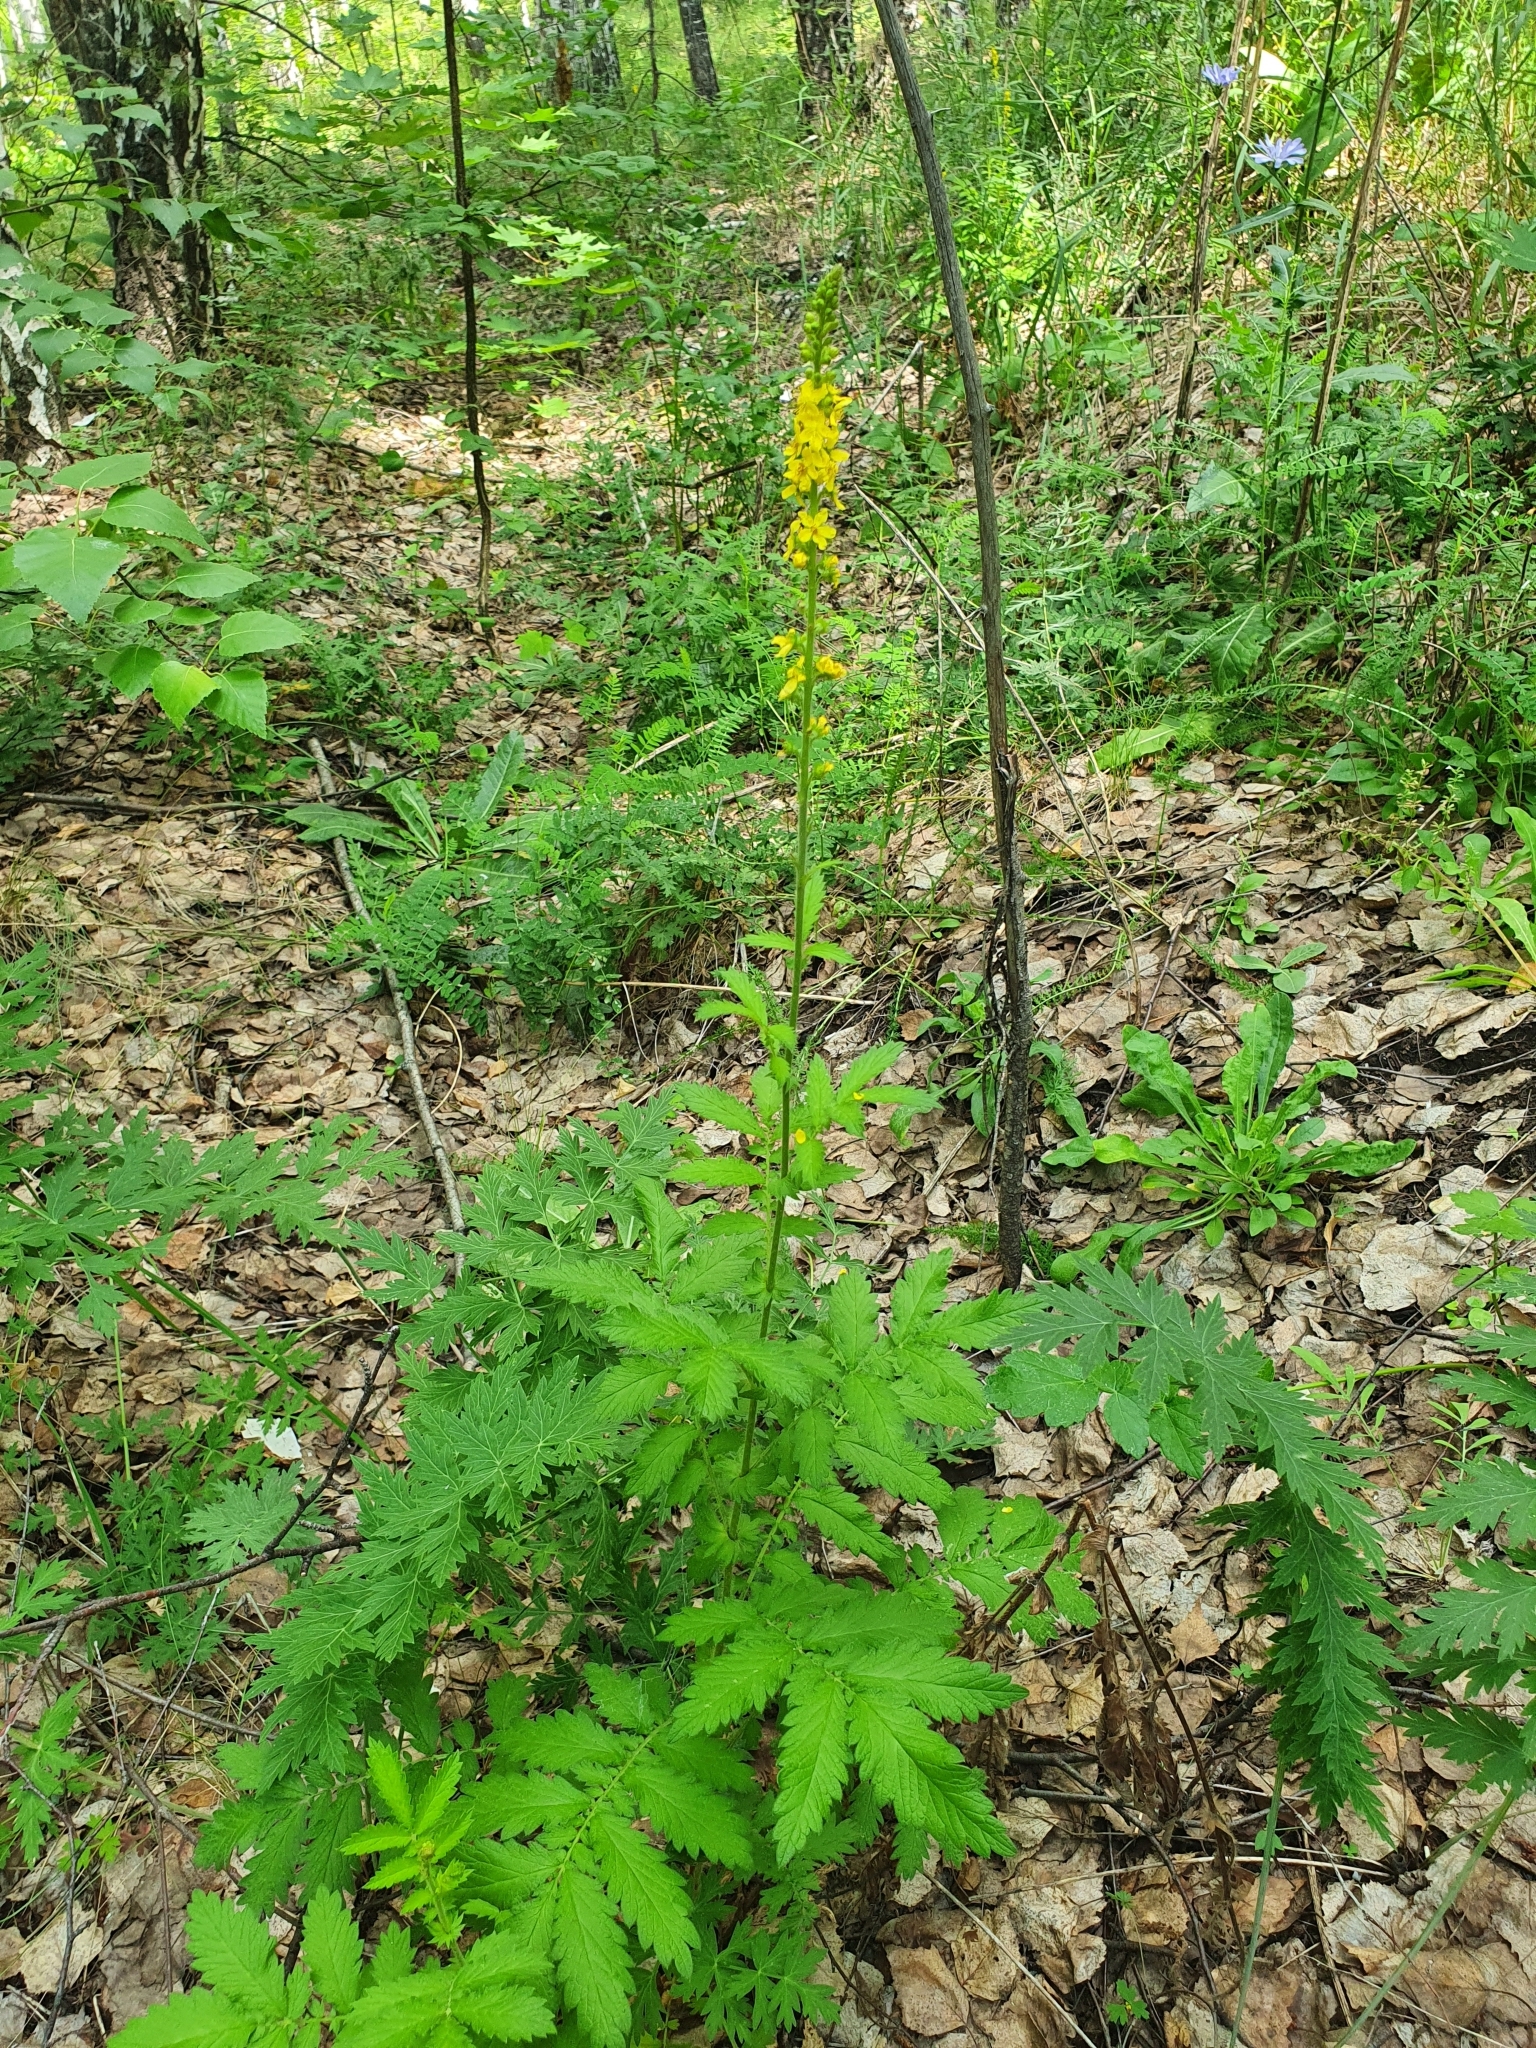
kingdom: Plantae
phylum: Tracheophyta
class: Magnoliopsida
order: Rosales
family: Rosaceae
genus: Agrimonia
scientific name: Agrimonia eupatoria
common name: Agrimony
